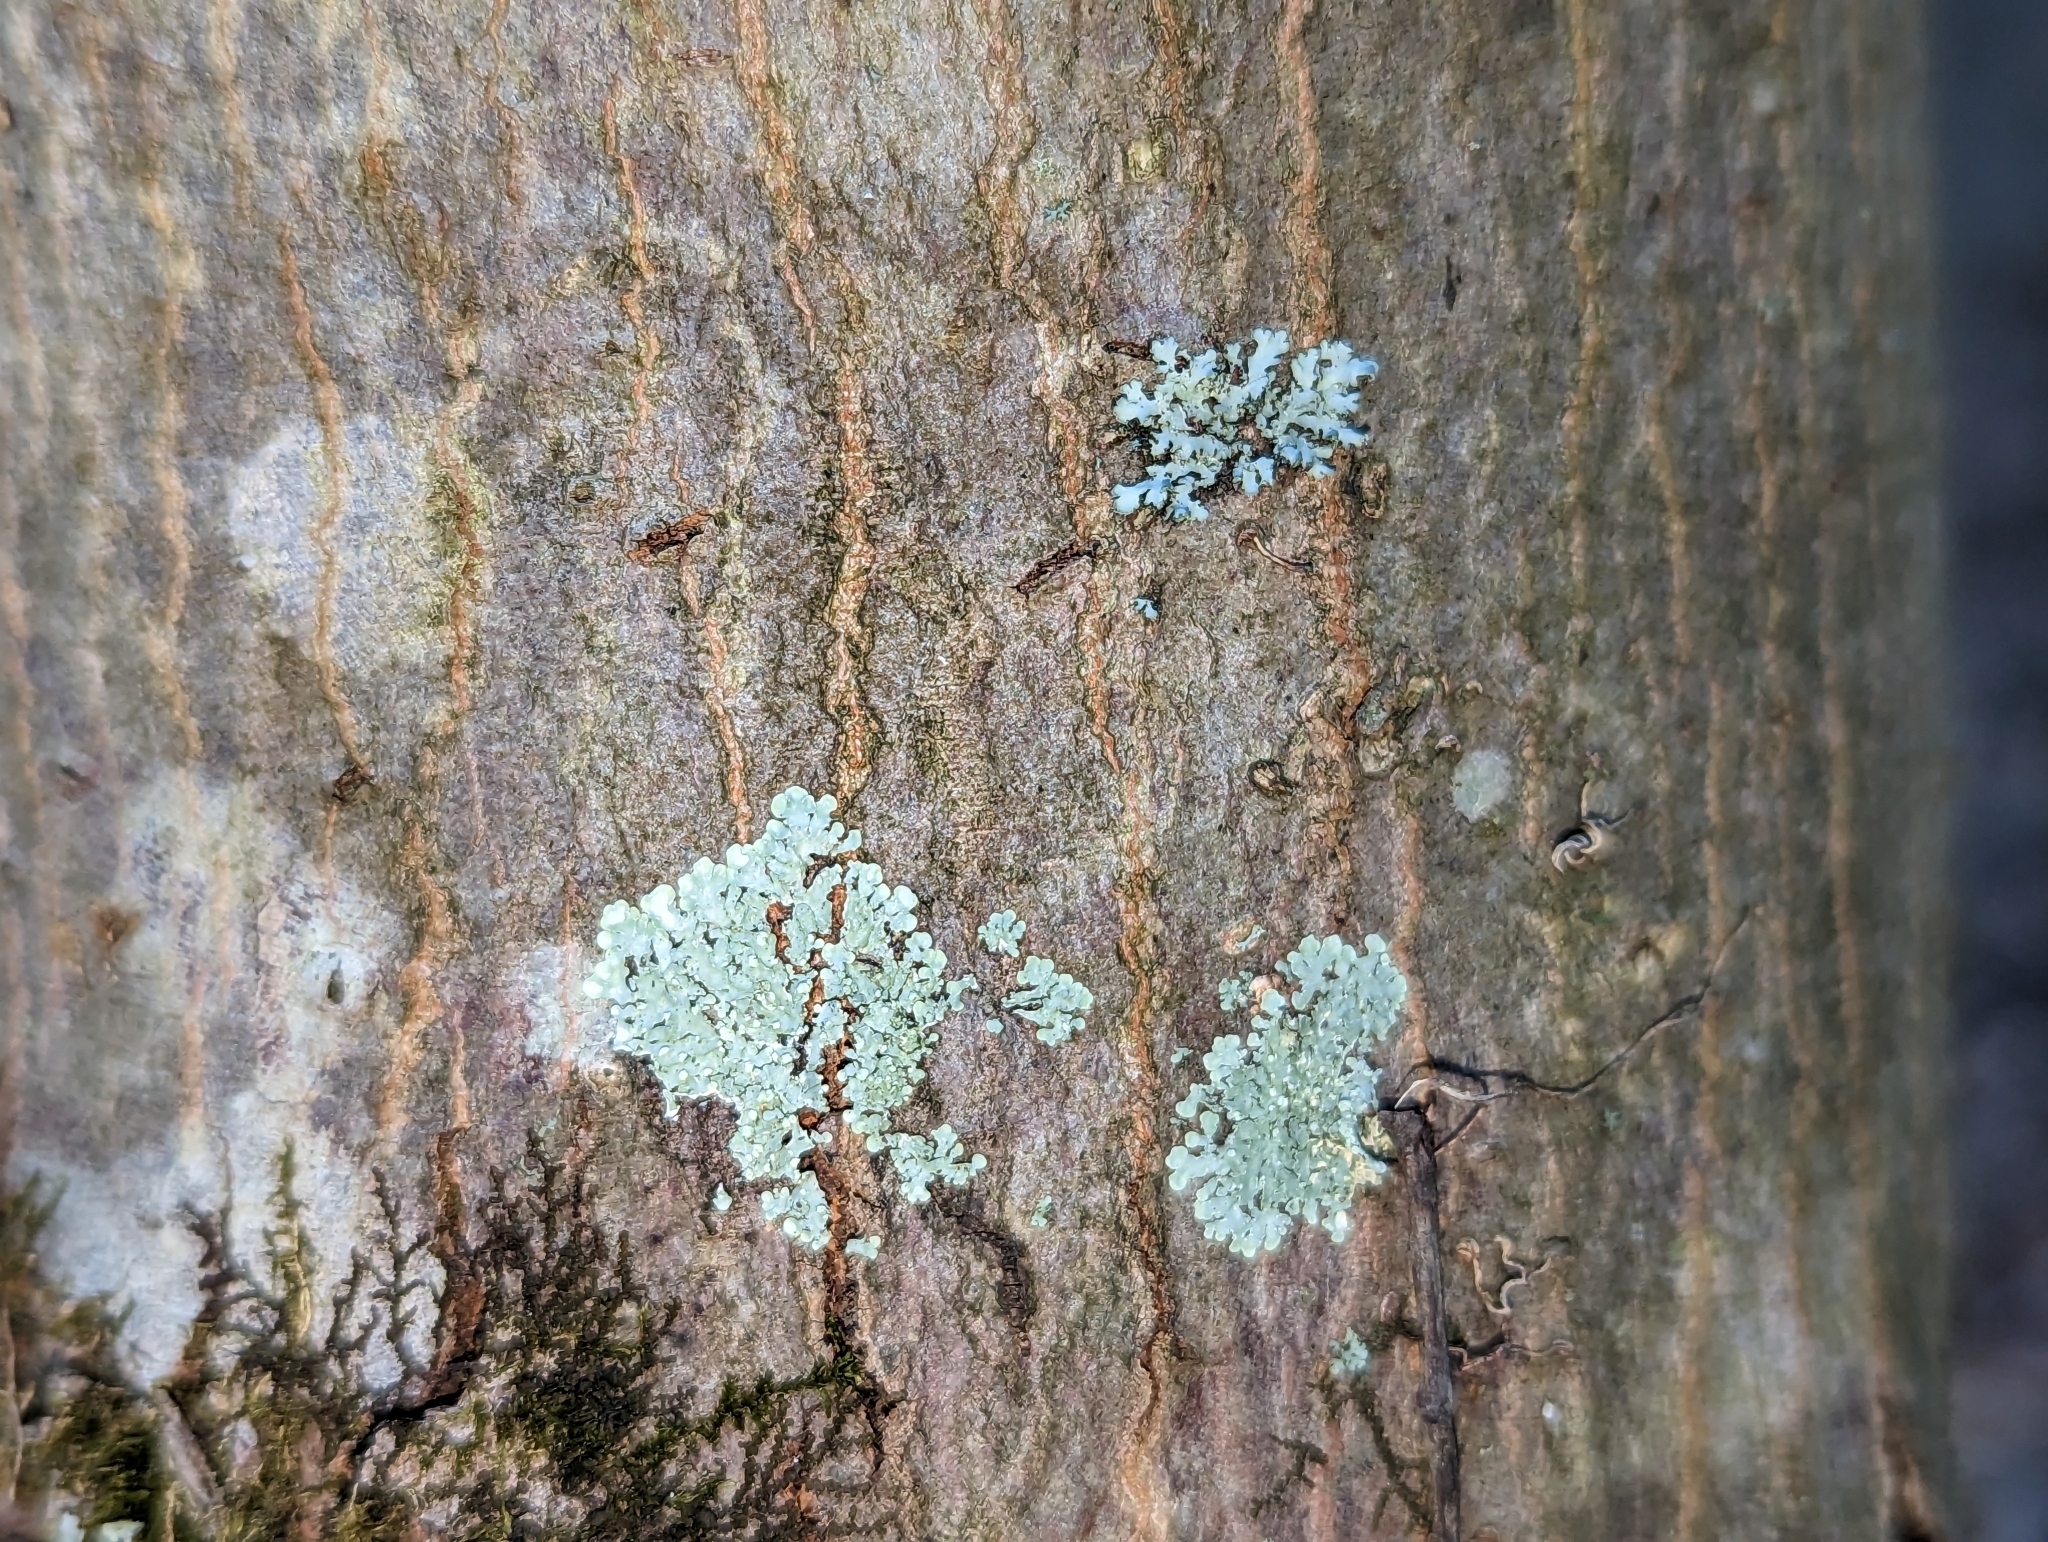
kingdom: Fungi
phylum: Ascomycota
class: Lecanoromycetes
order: Caliciales
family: Caliciaceae
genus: Pyxine
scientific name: Pyxine subcinerea
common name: Mustard lichen
